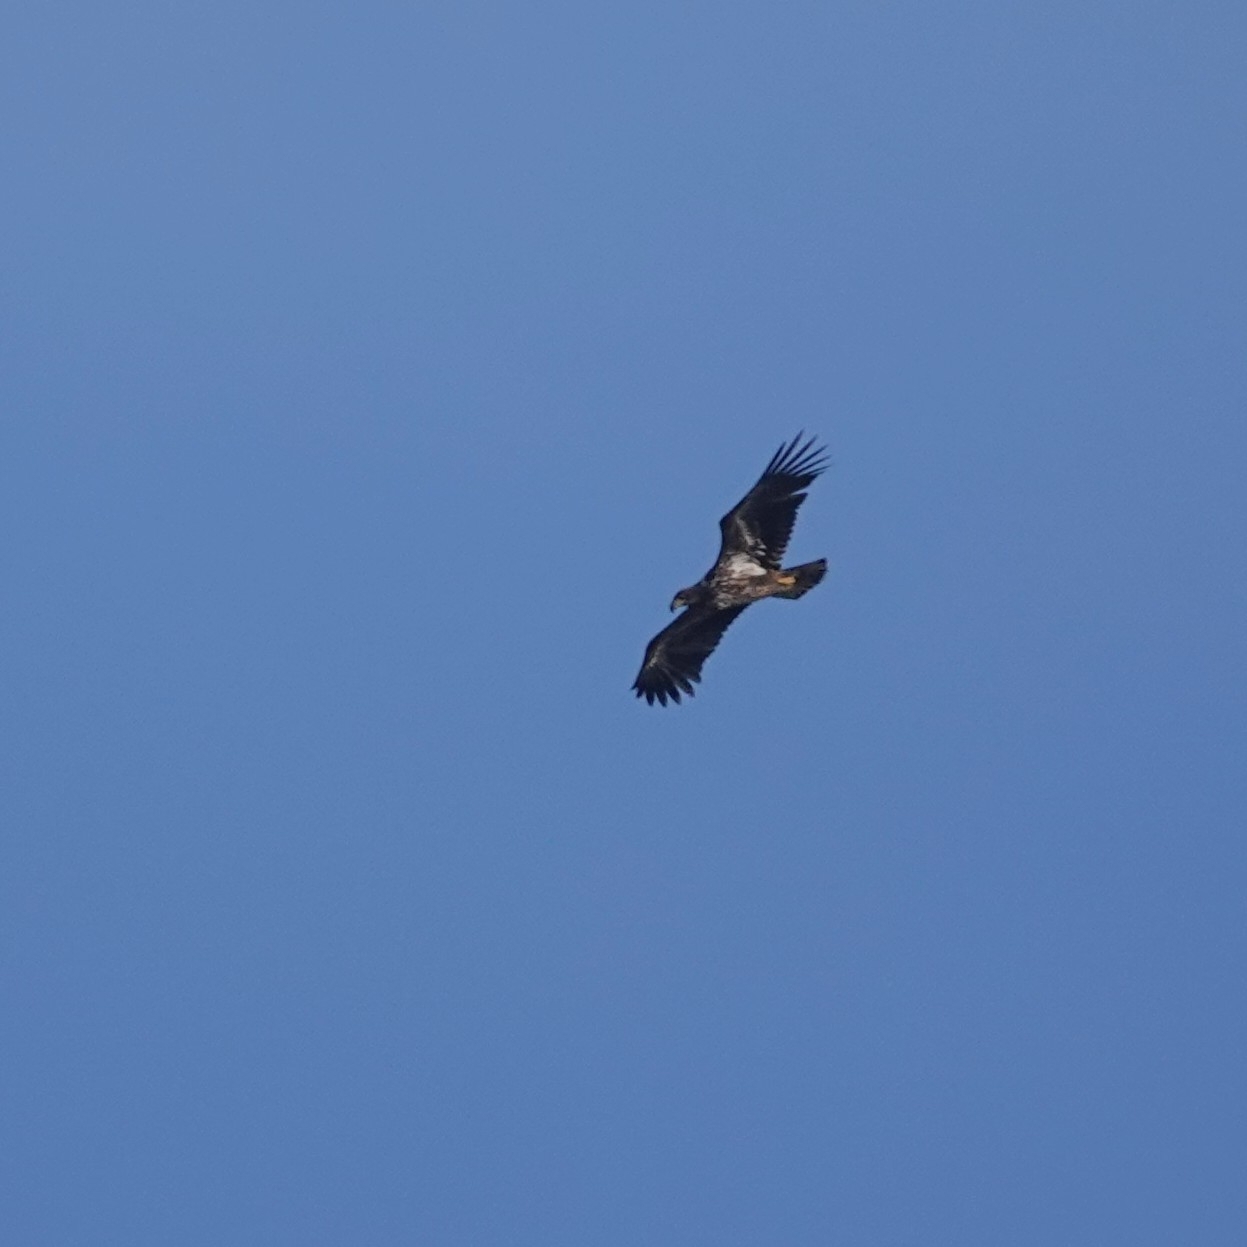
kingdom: Animalia
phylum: Chordata
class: Aves
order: Accipitriformes
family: Accipitridae
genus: Haliaeetus
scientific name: Haliaeetus albicilla
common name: White-tailed eagle
